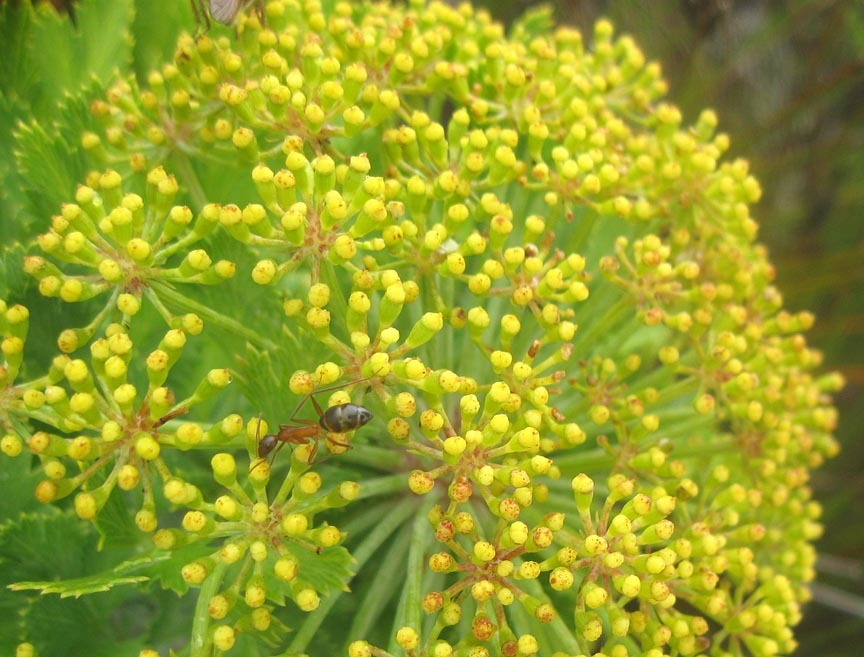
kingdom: Plantae
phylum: Tracheophyta
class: Magnoliopsida
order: Apiales
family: Apiaceae
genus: Notobubon
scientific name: Notobubon galbanum
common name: Blisterbush
